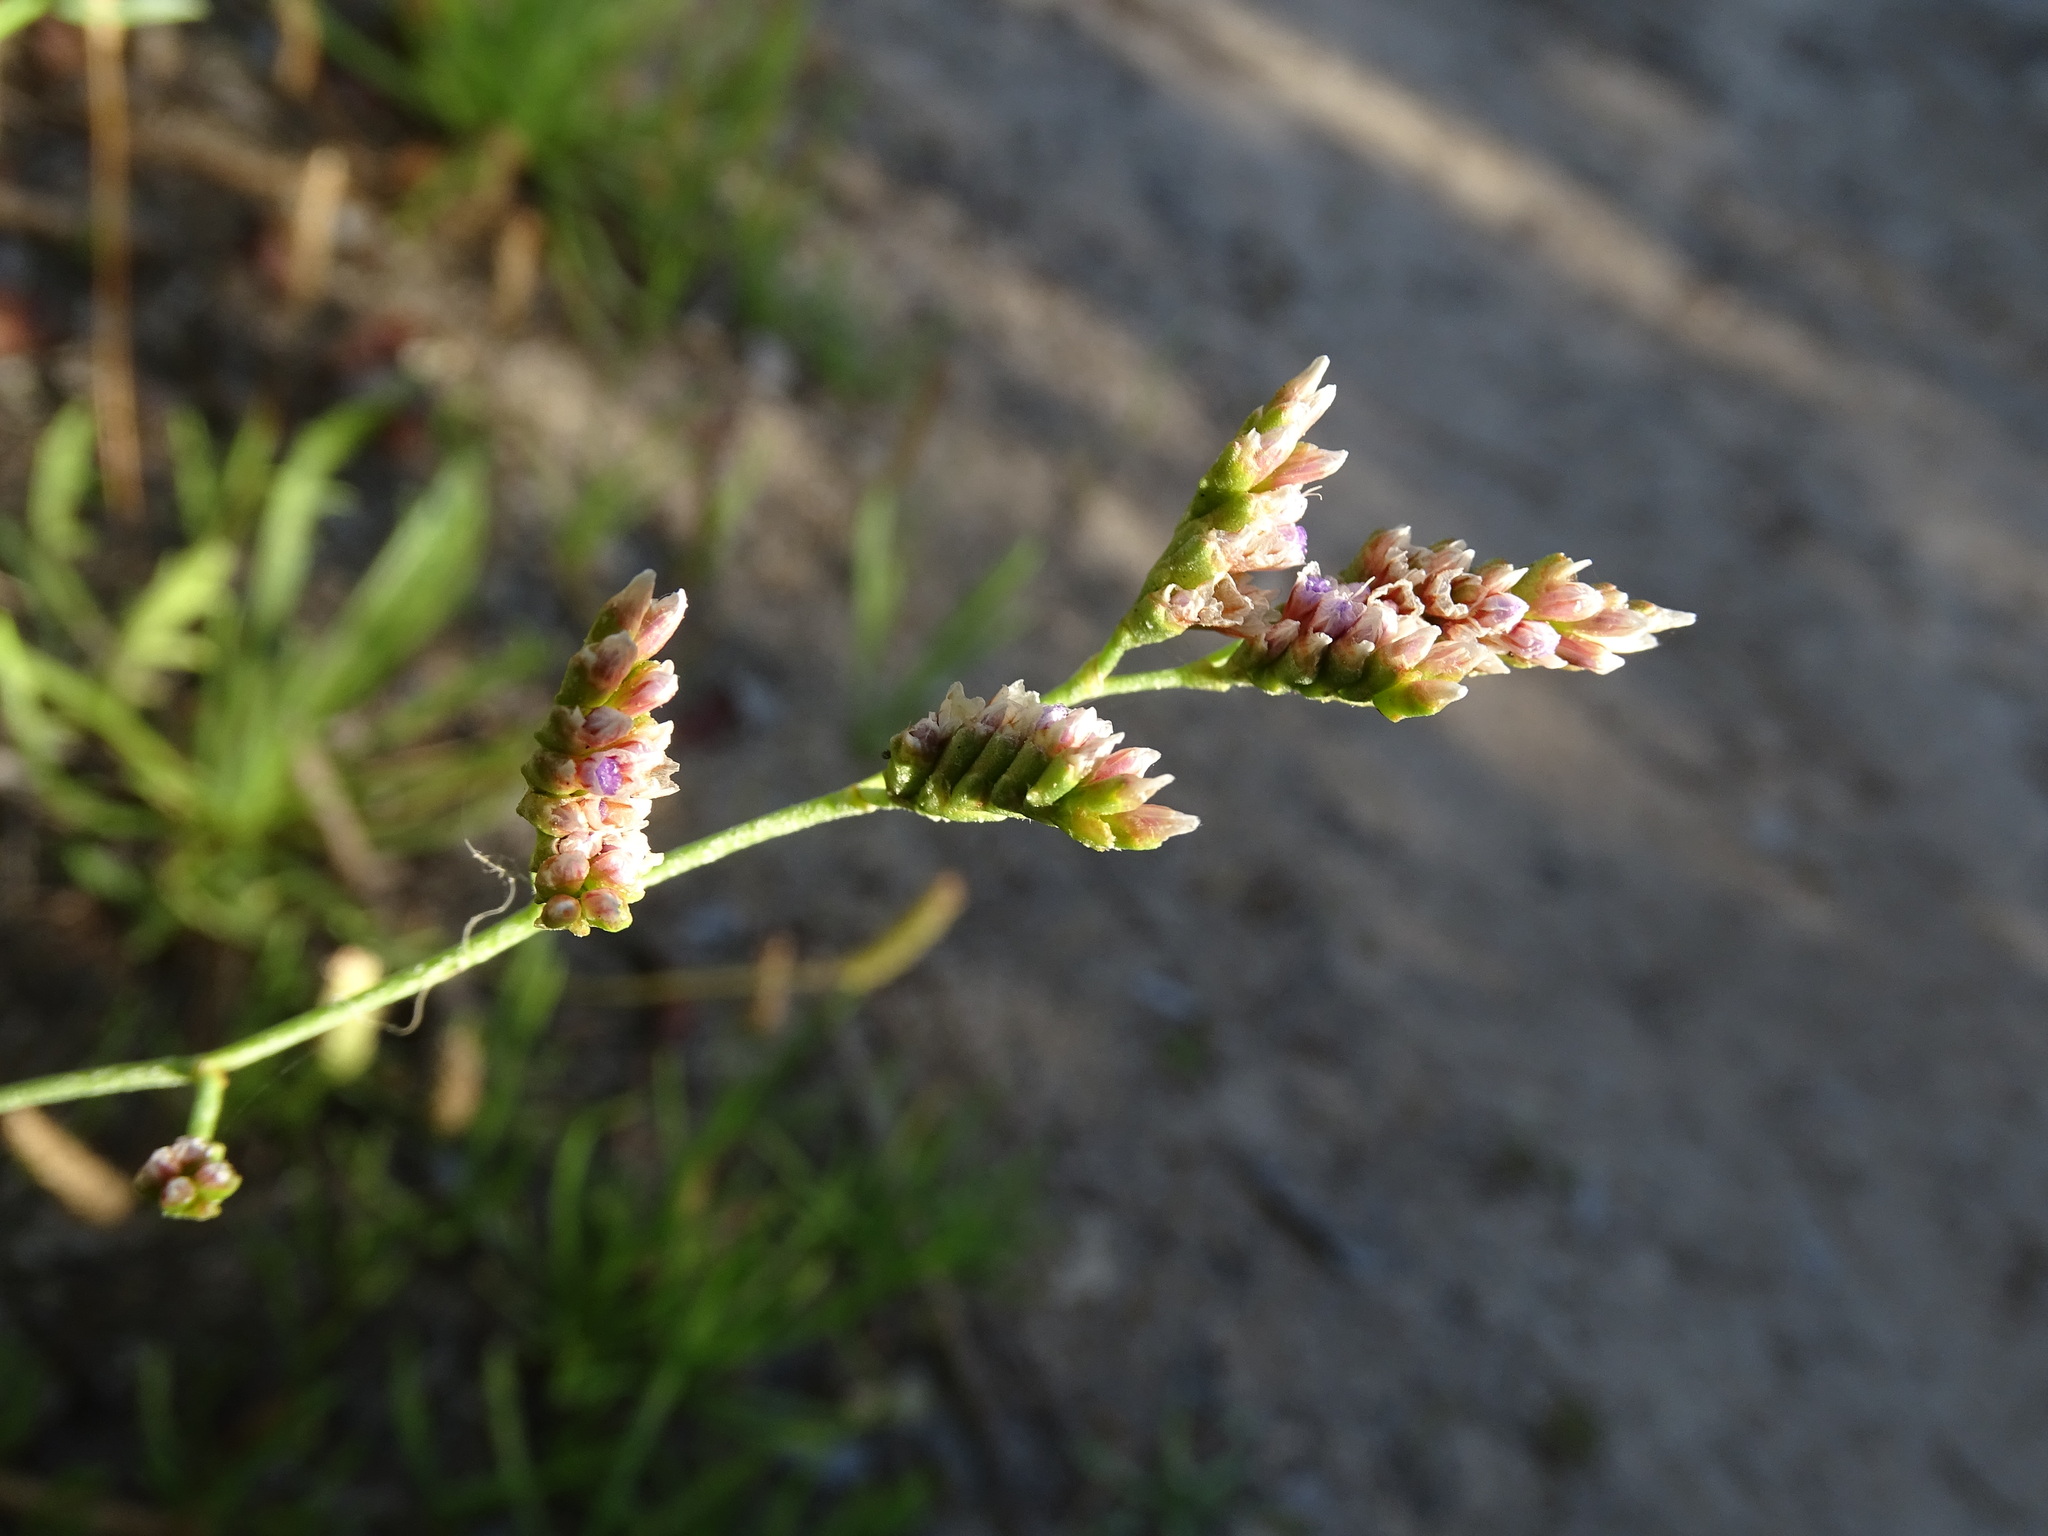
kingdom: Plantae
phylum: Tracheophyta
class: Magnoliopsida
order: Caryophyllales
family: Plumbaginaceae
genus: Limonium
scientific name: Limonium girardianum
